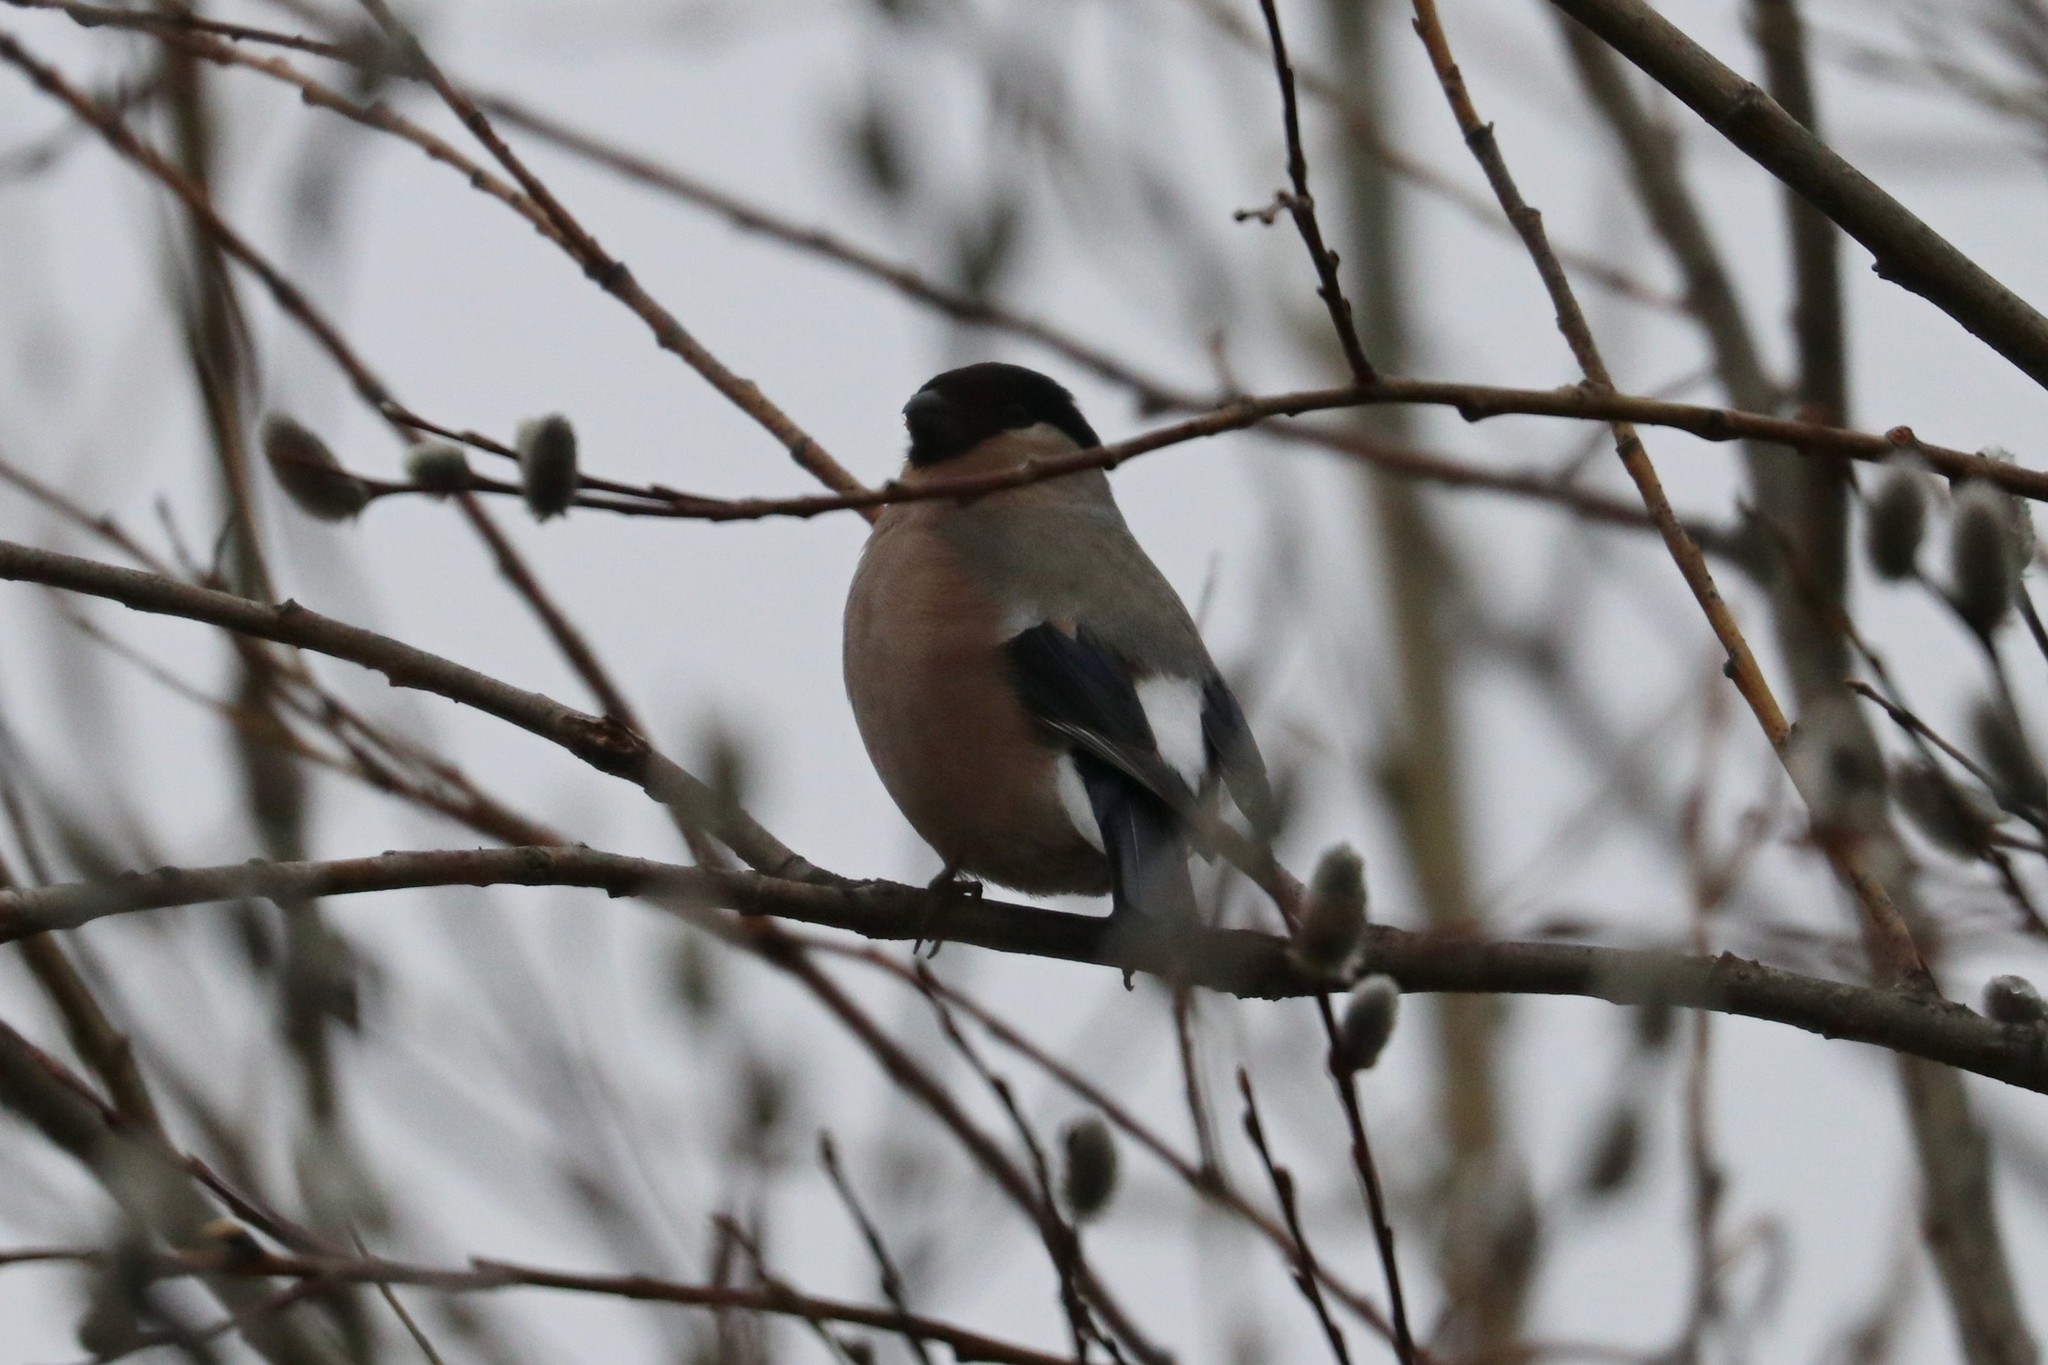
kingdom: Animalia
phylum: Chordata
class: Aves
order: Passeriformes
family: Fringillidae
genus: Pyrrhula
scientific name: Pyrrhula pyrrhula
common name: Eurasian bullfinch
